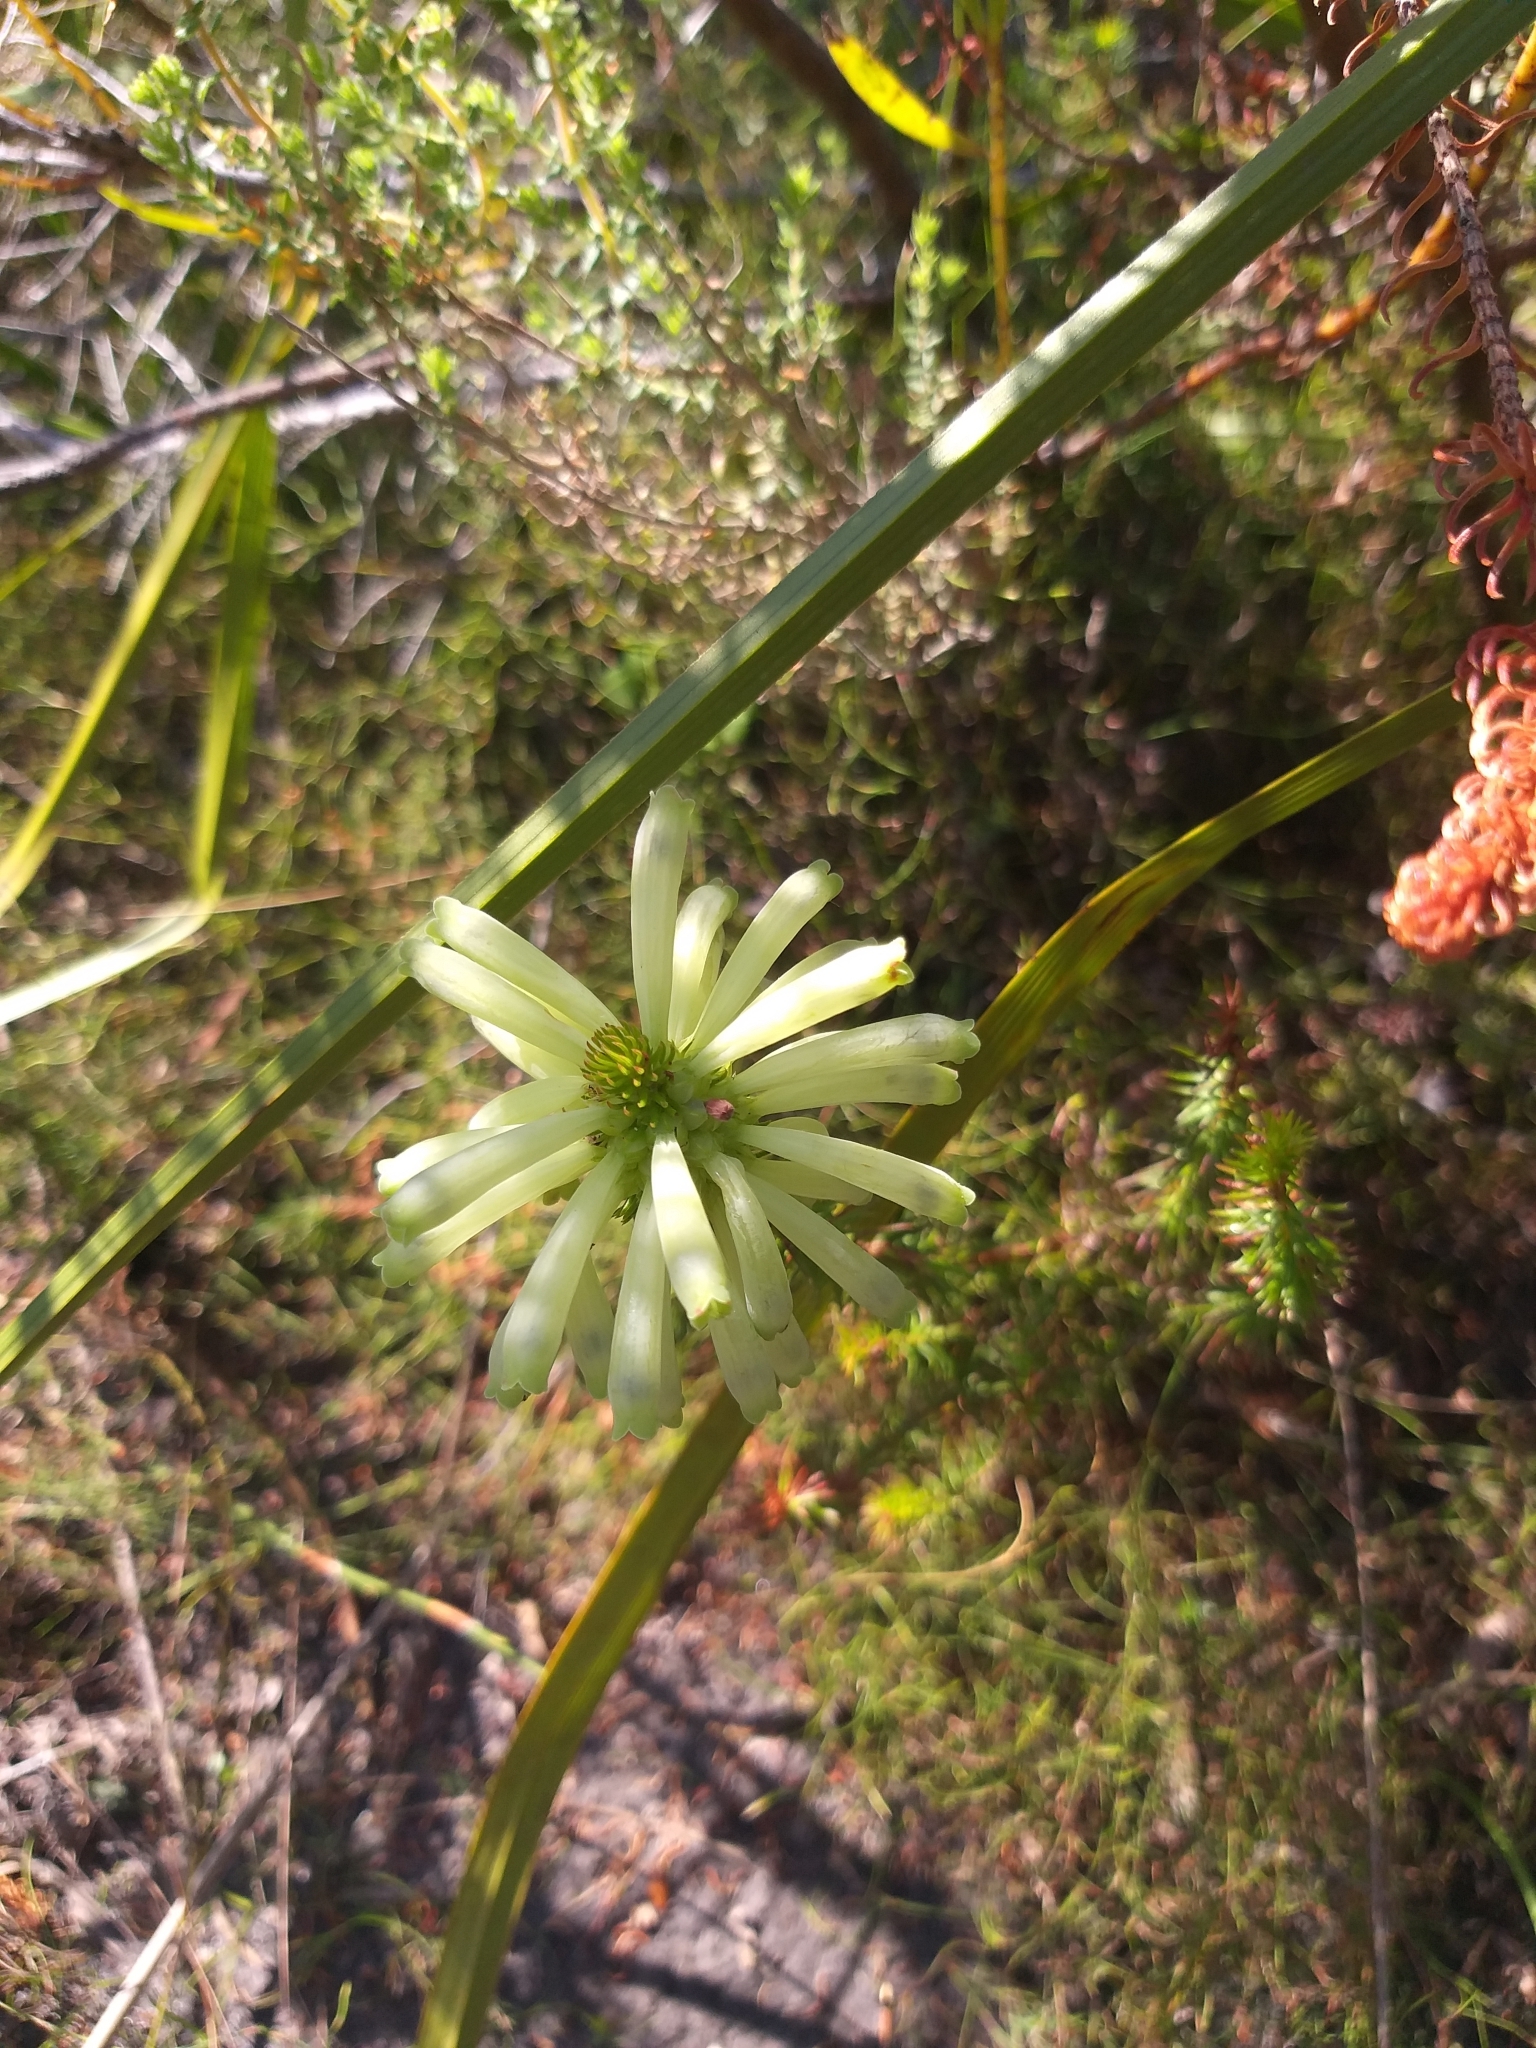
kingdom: Plantae
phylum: Tracheophyta
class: Magnoliopsida
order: Ericales
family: Ericaceae
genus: Erica
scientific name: Erica sessiliflora
